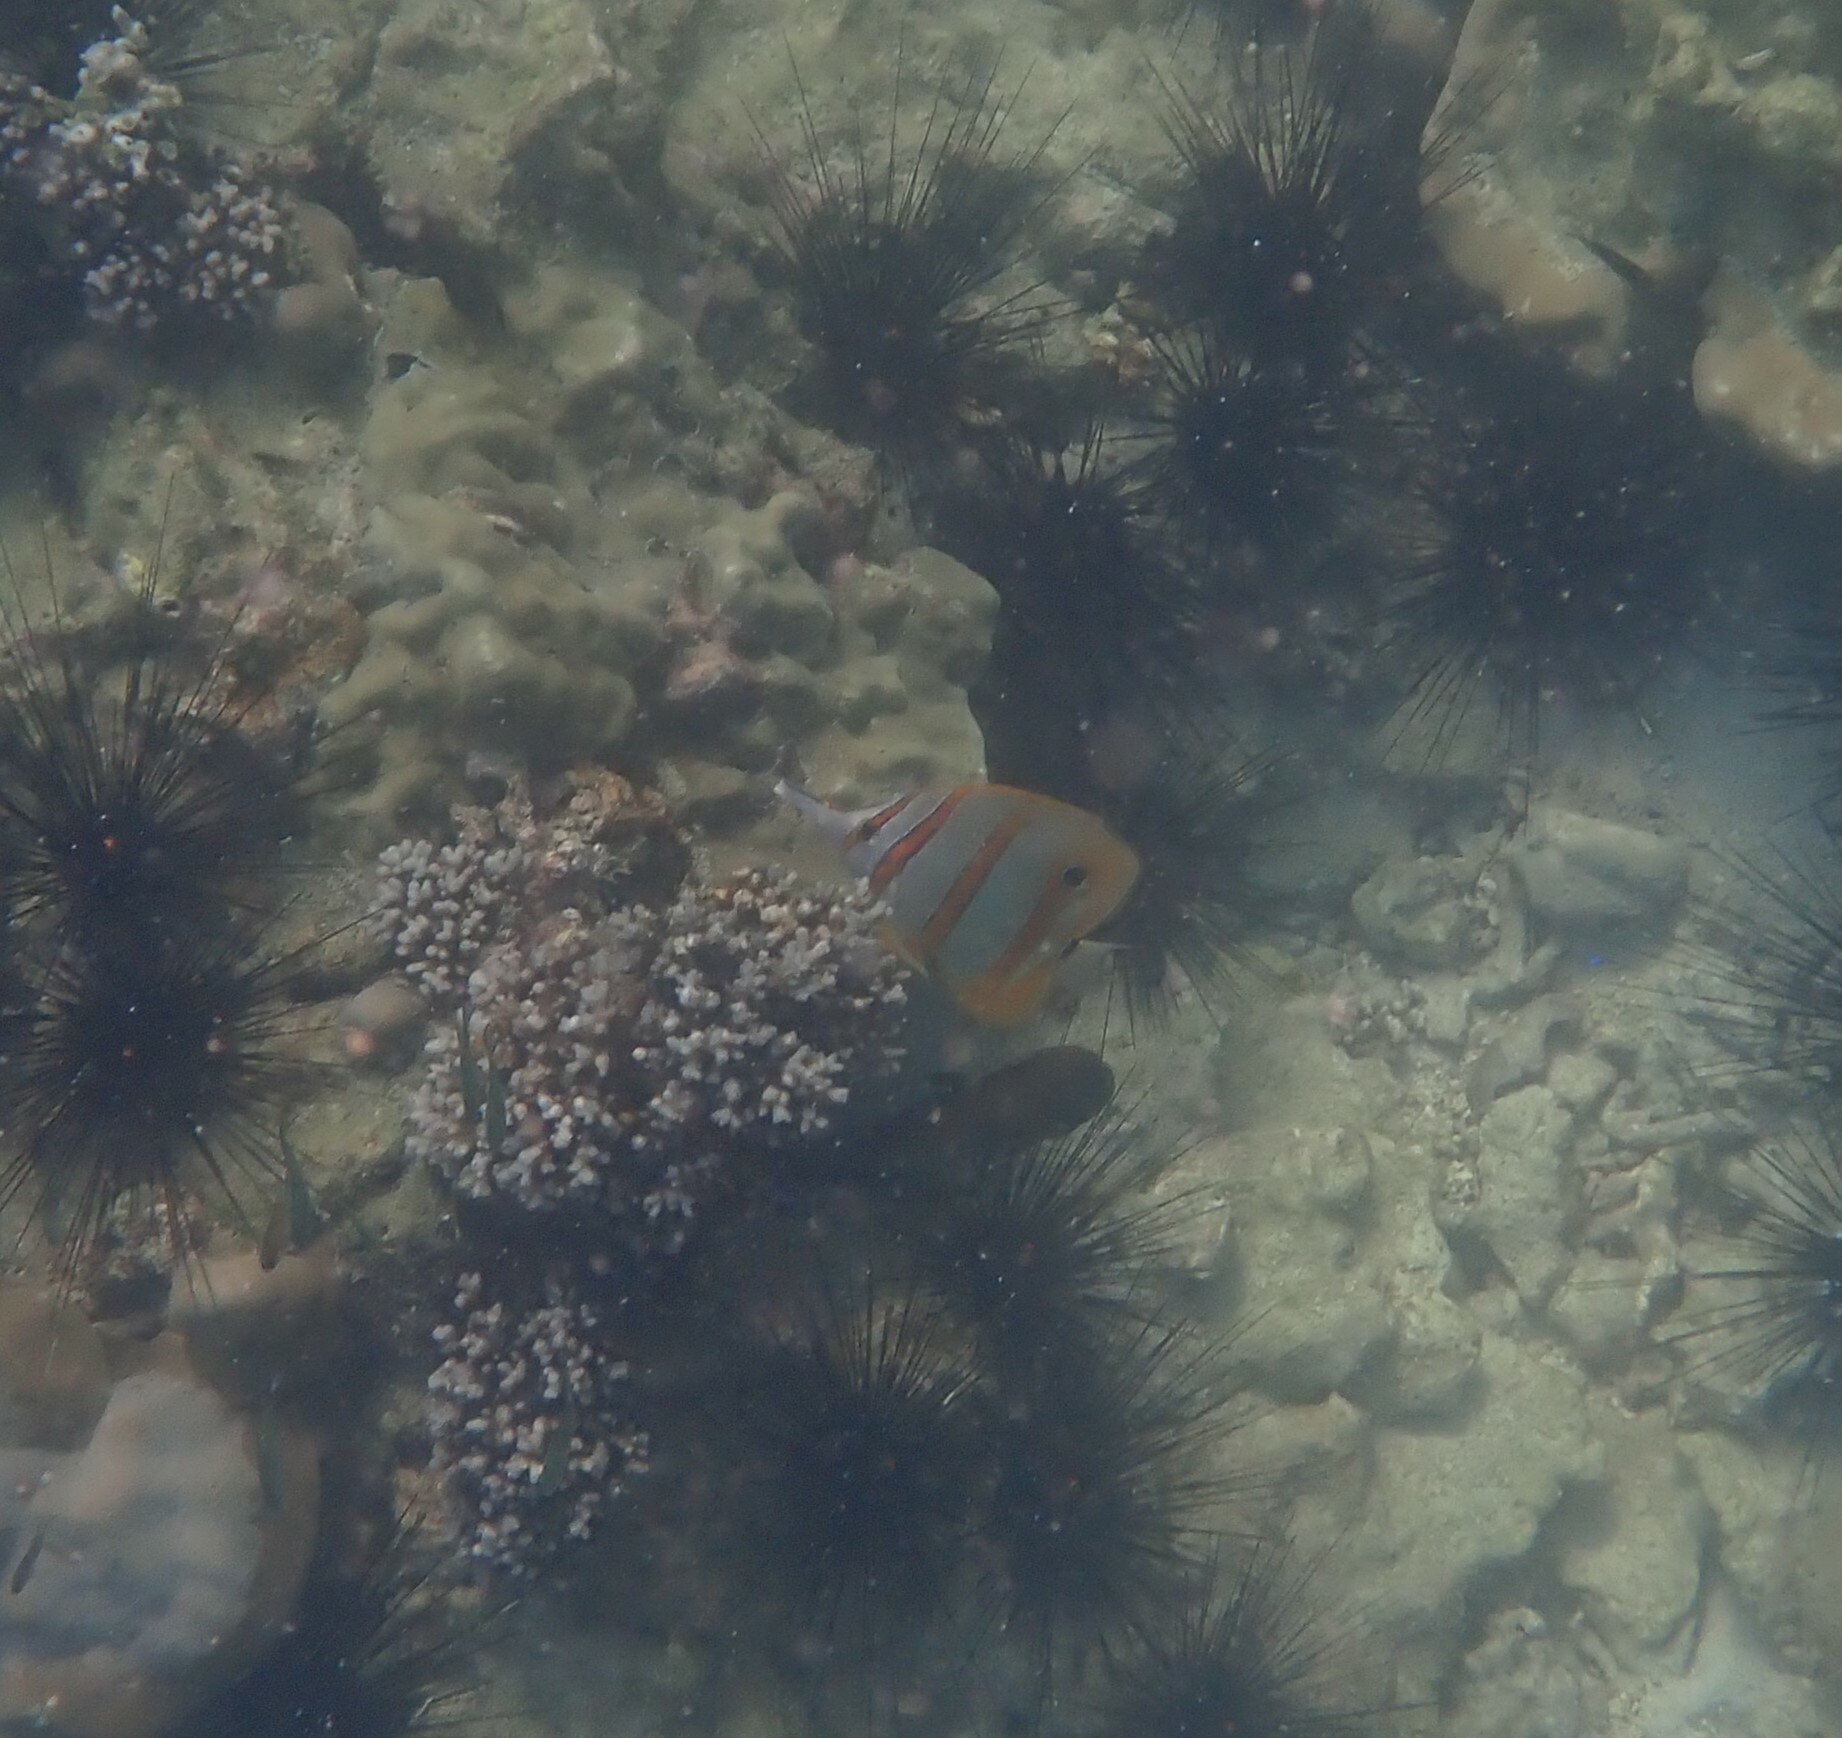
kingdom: Animalia
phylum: Chordata
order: Perciformes
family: Chaetodontidae
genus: Chelmon
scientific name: Chelmon rostratus
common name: Beaked butterflyfish
